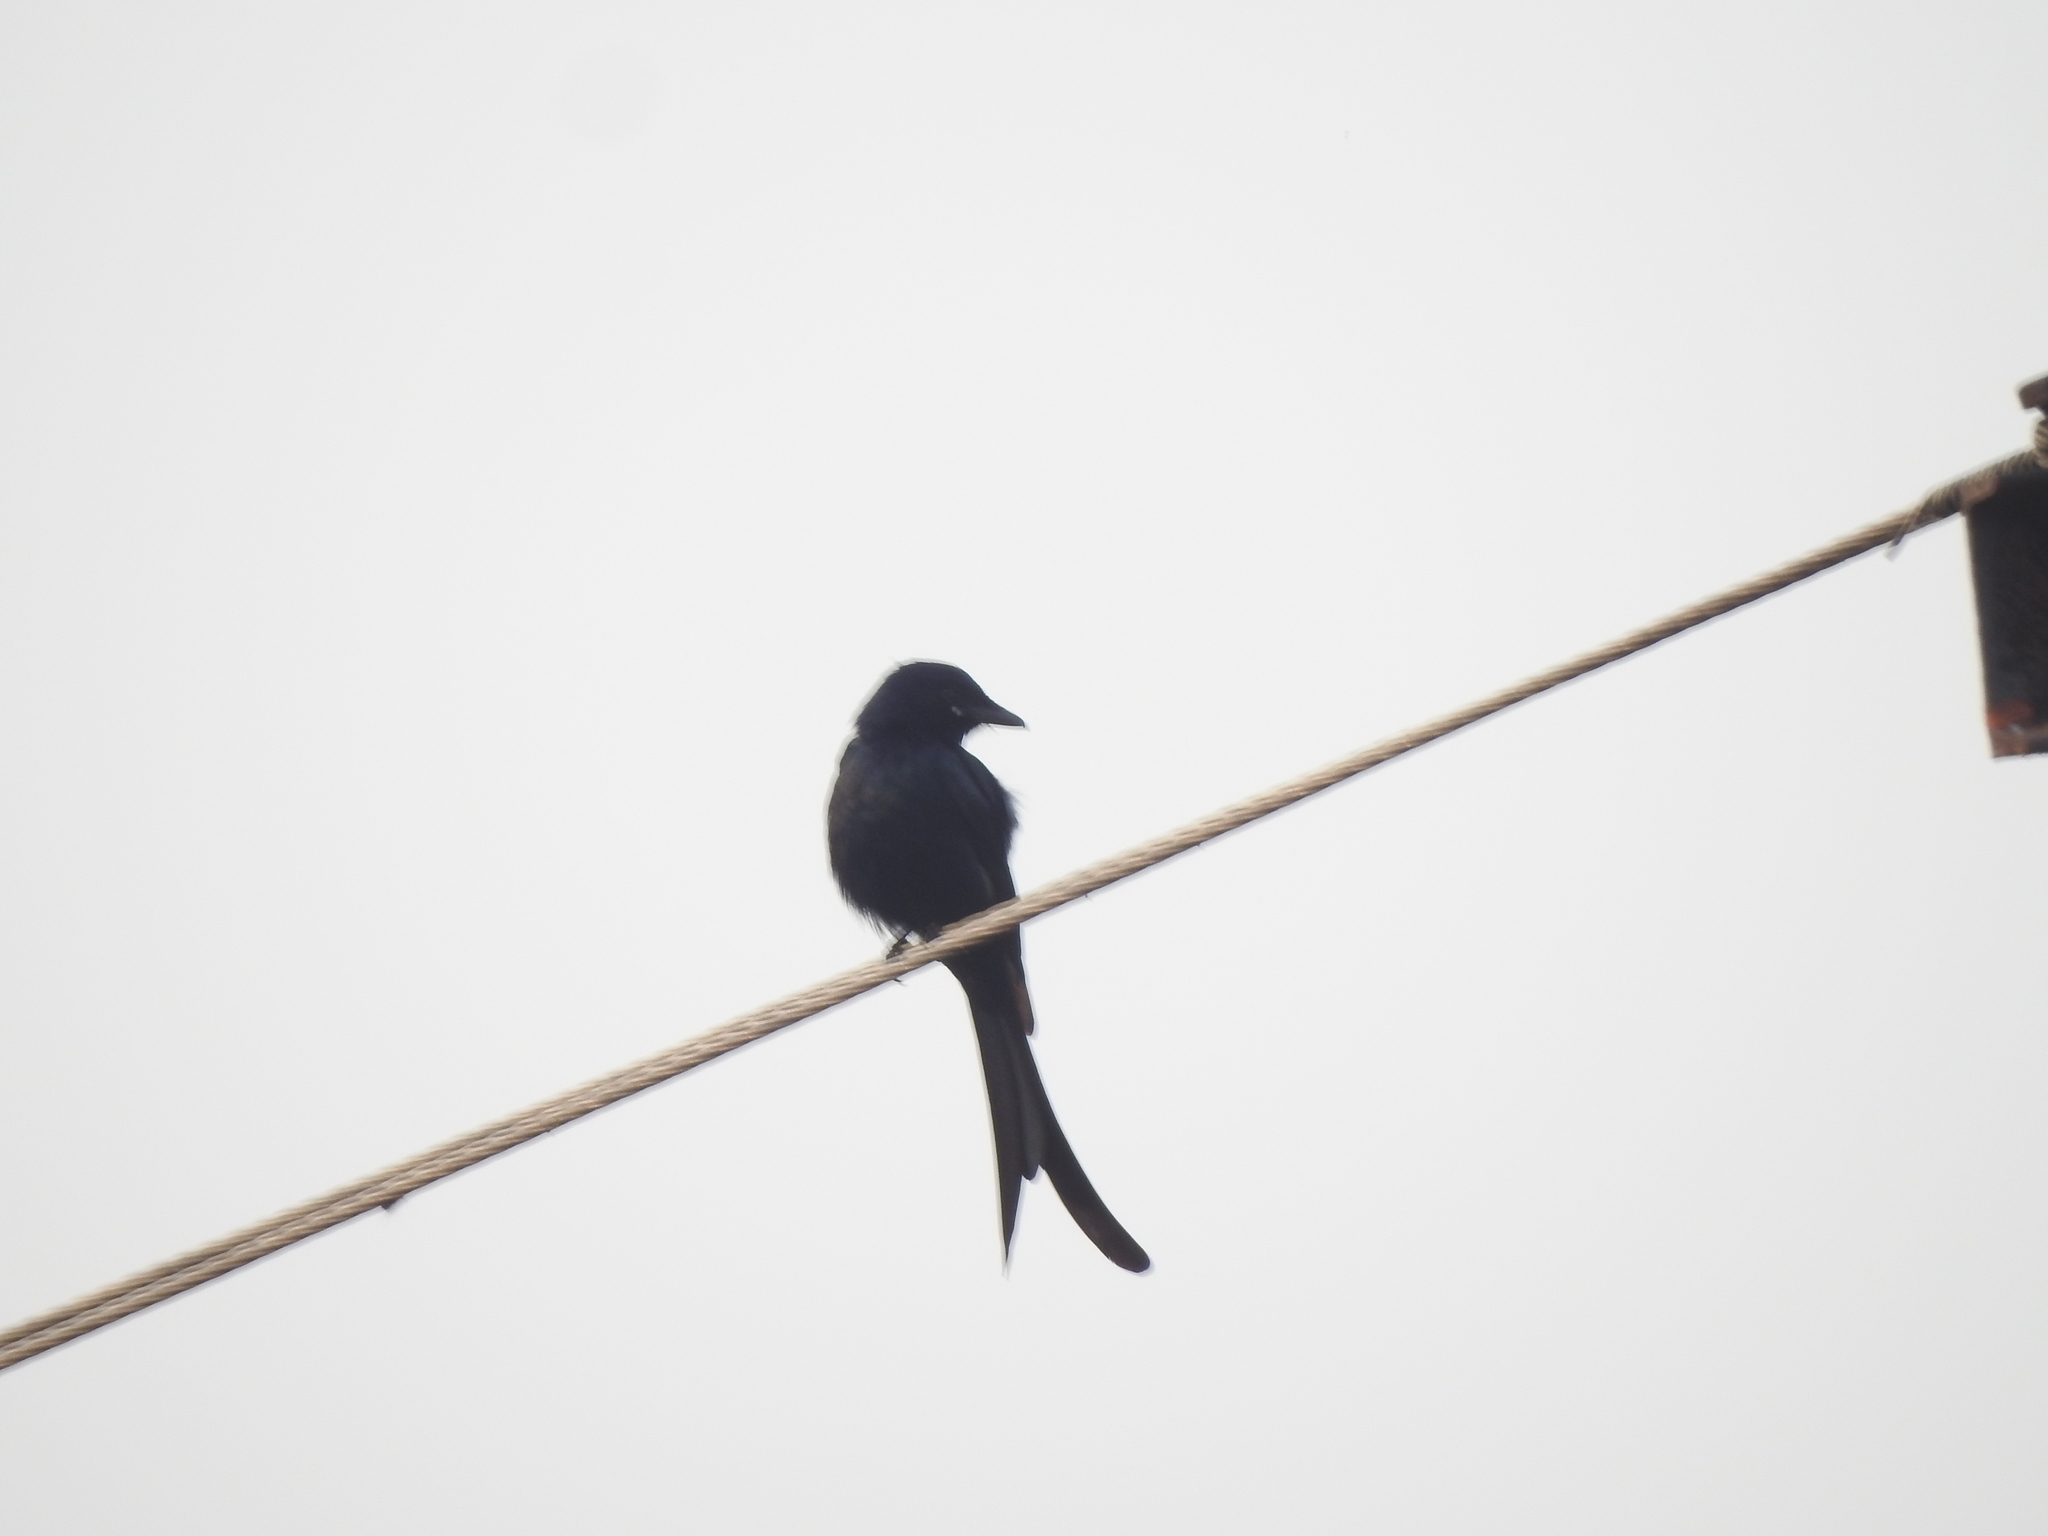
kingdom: Animalia
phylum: Chordata
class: Aves
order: Passeriformes
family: Dicruridae
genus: Dicrurus
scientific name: Dicrurus macrocercus
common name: Black drongo
